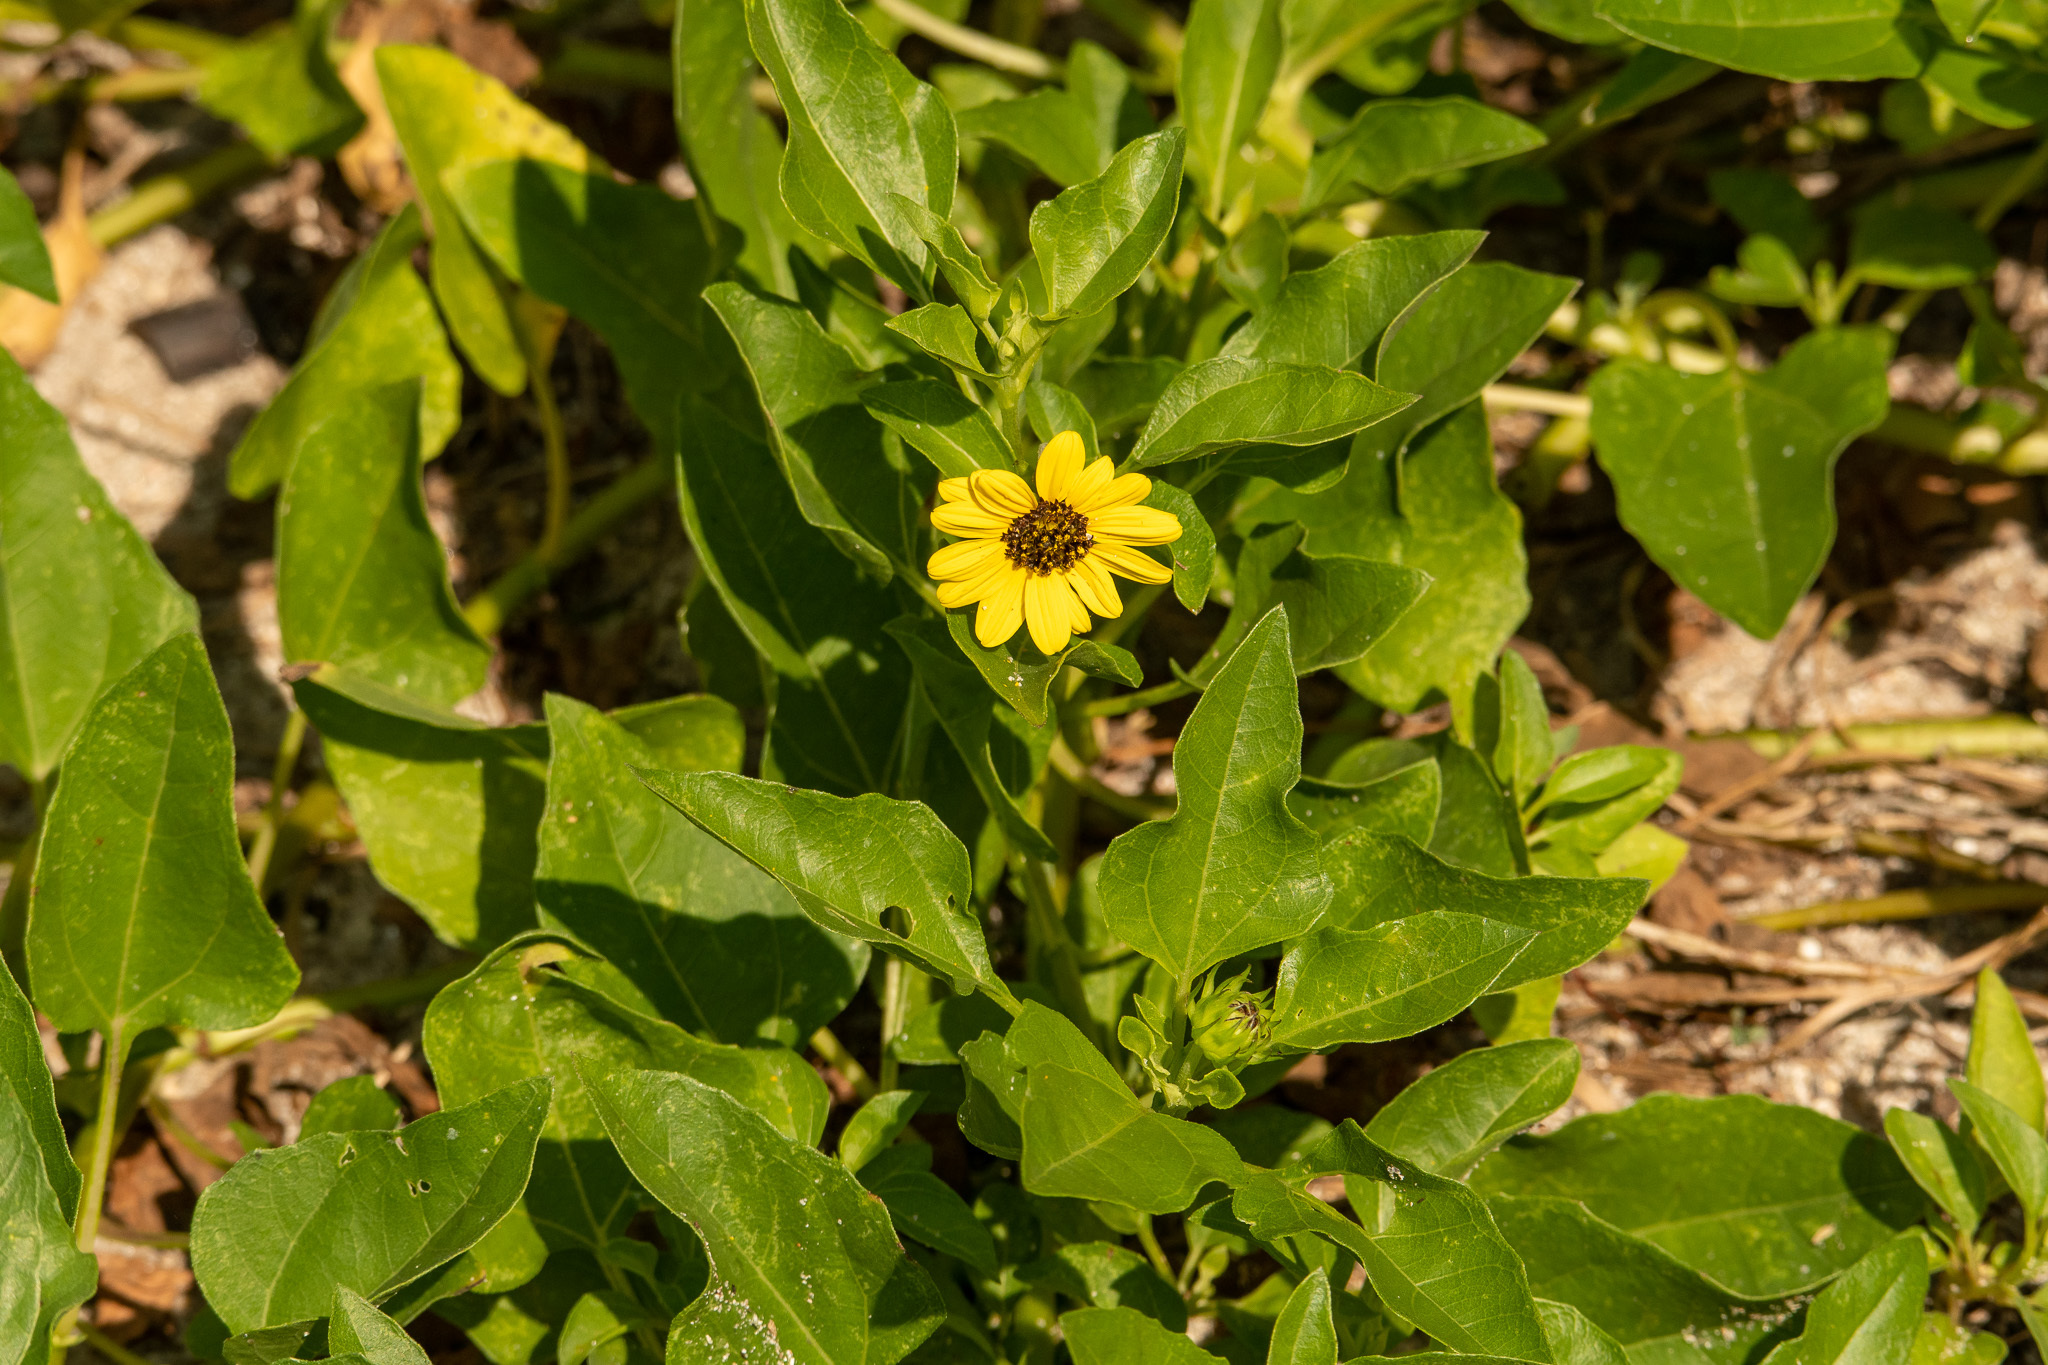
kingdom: Plantae
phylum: Tracheophyta
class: Magnoliopsida
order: Asterales
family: Asteraceae
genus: Helianthus
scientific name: Helianthus debilis
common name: Weak sunflower
